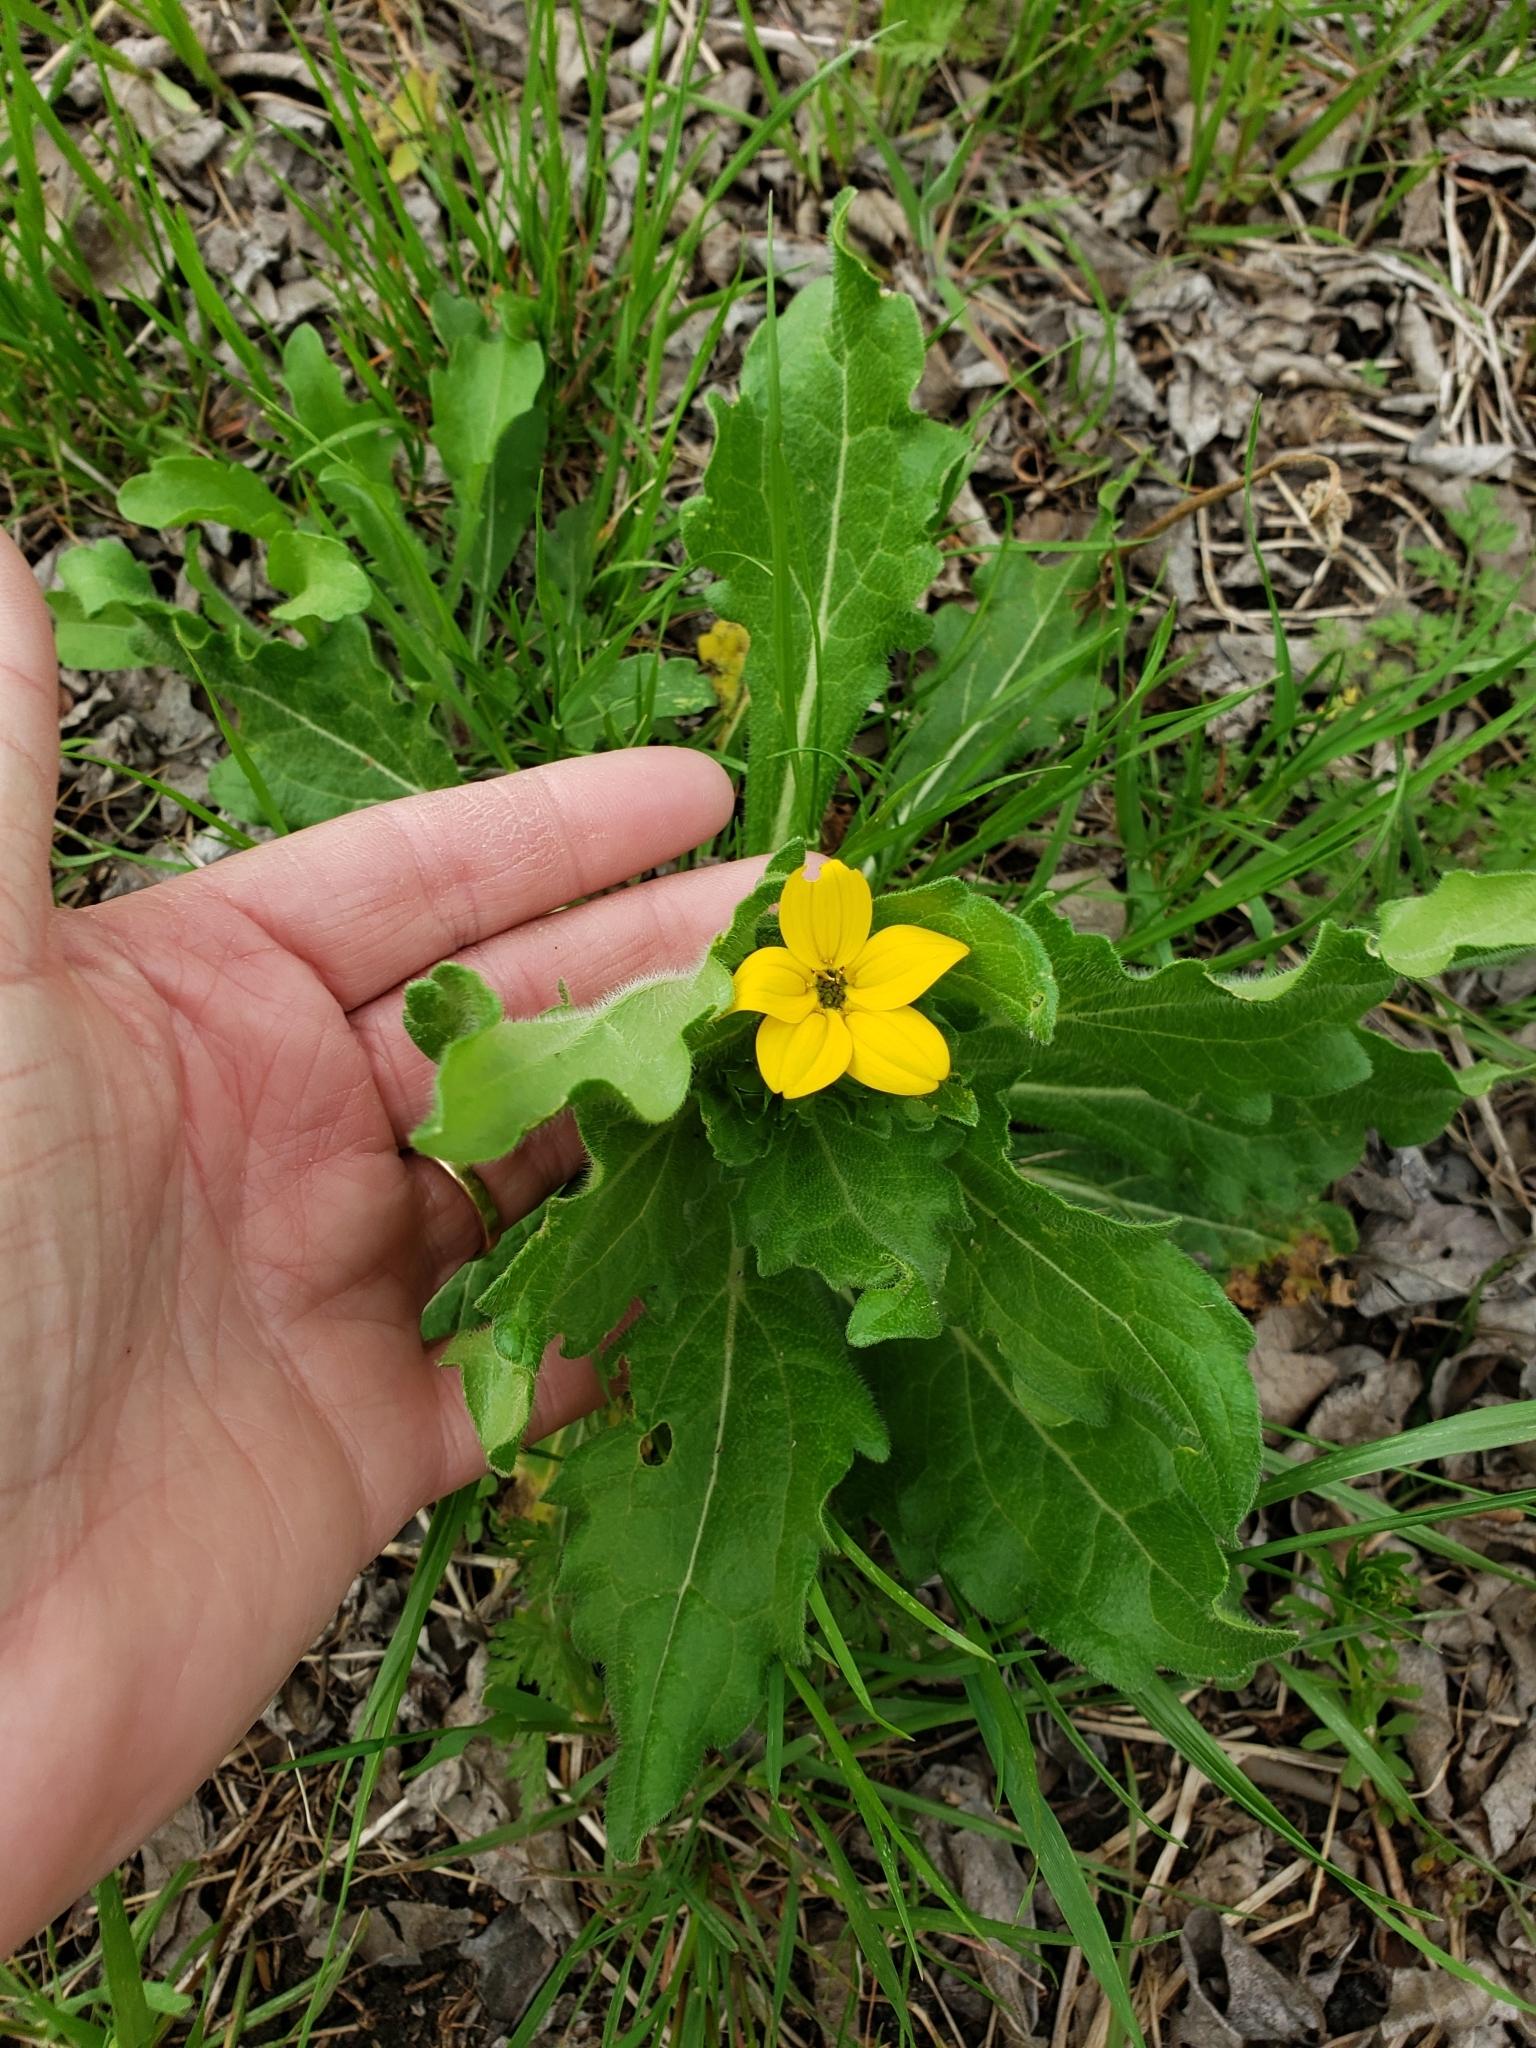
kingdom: Plantae
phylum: Tracheophyta
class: Magnoliopsida
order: Asterales
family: Asteraceae
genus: Lindheimera
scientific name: Lindheimera texana
